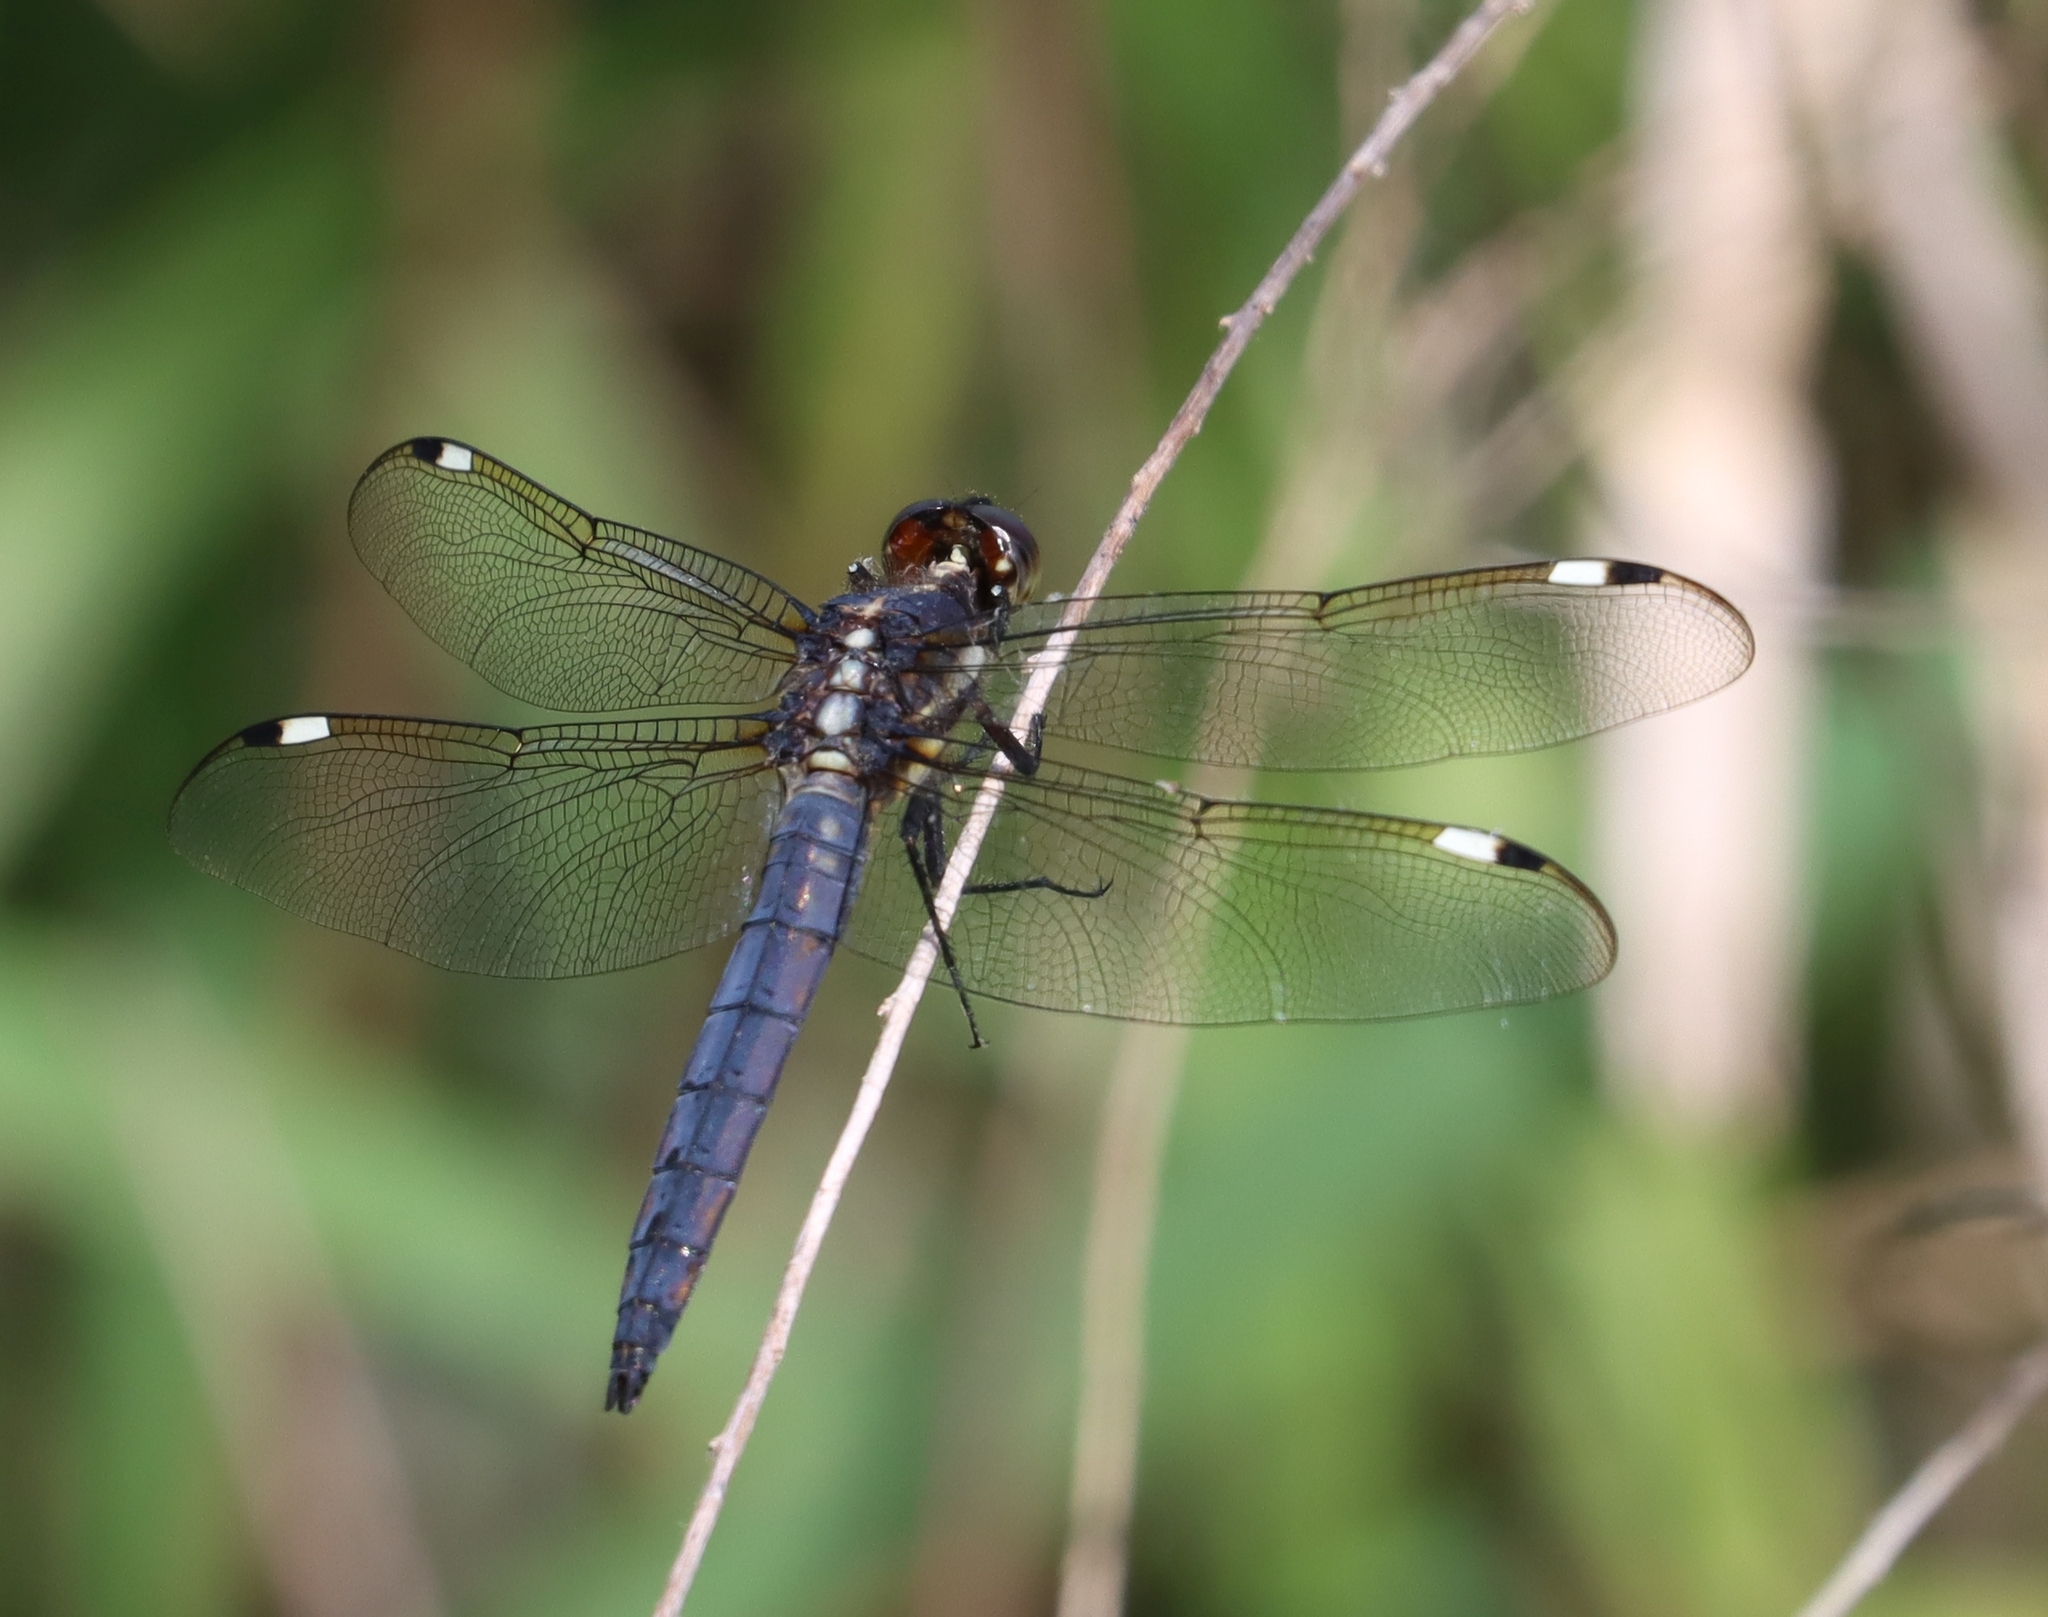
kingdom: Animalia
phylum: Arthropoda
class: Insecta
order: Odonata
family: Libellulidae
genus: Libellula
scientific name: Libellula cyanea
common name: Spangled skimmer
